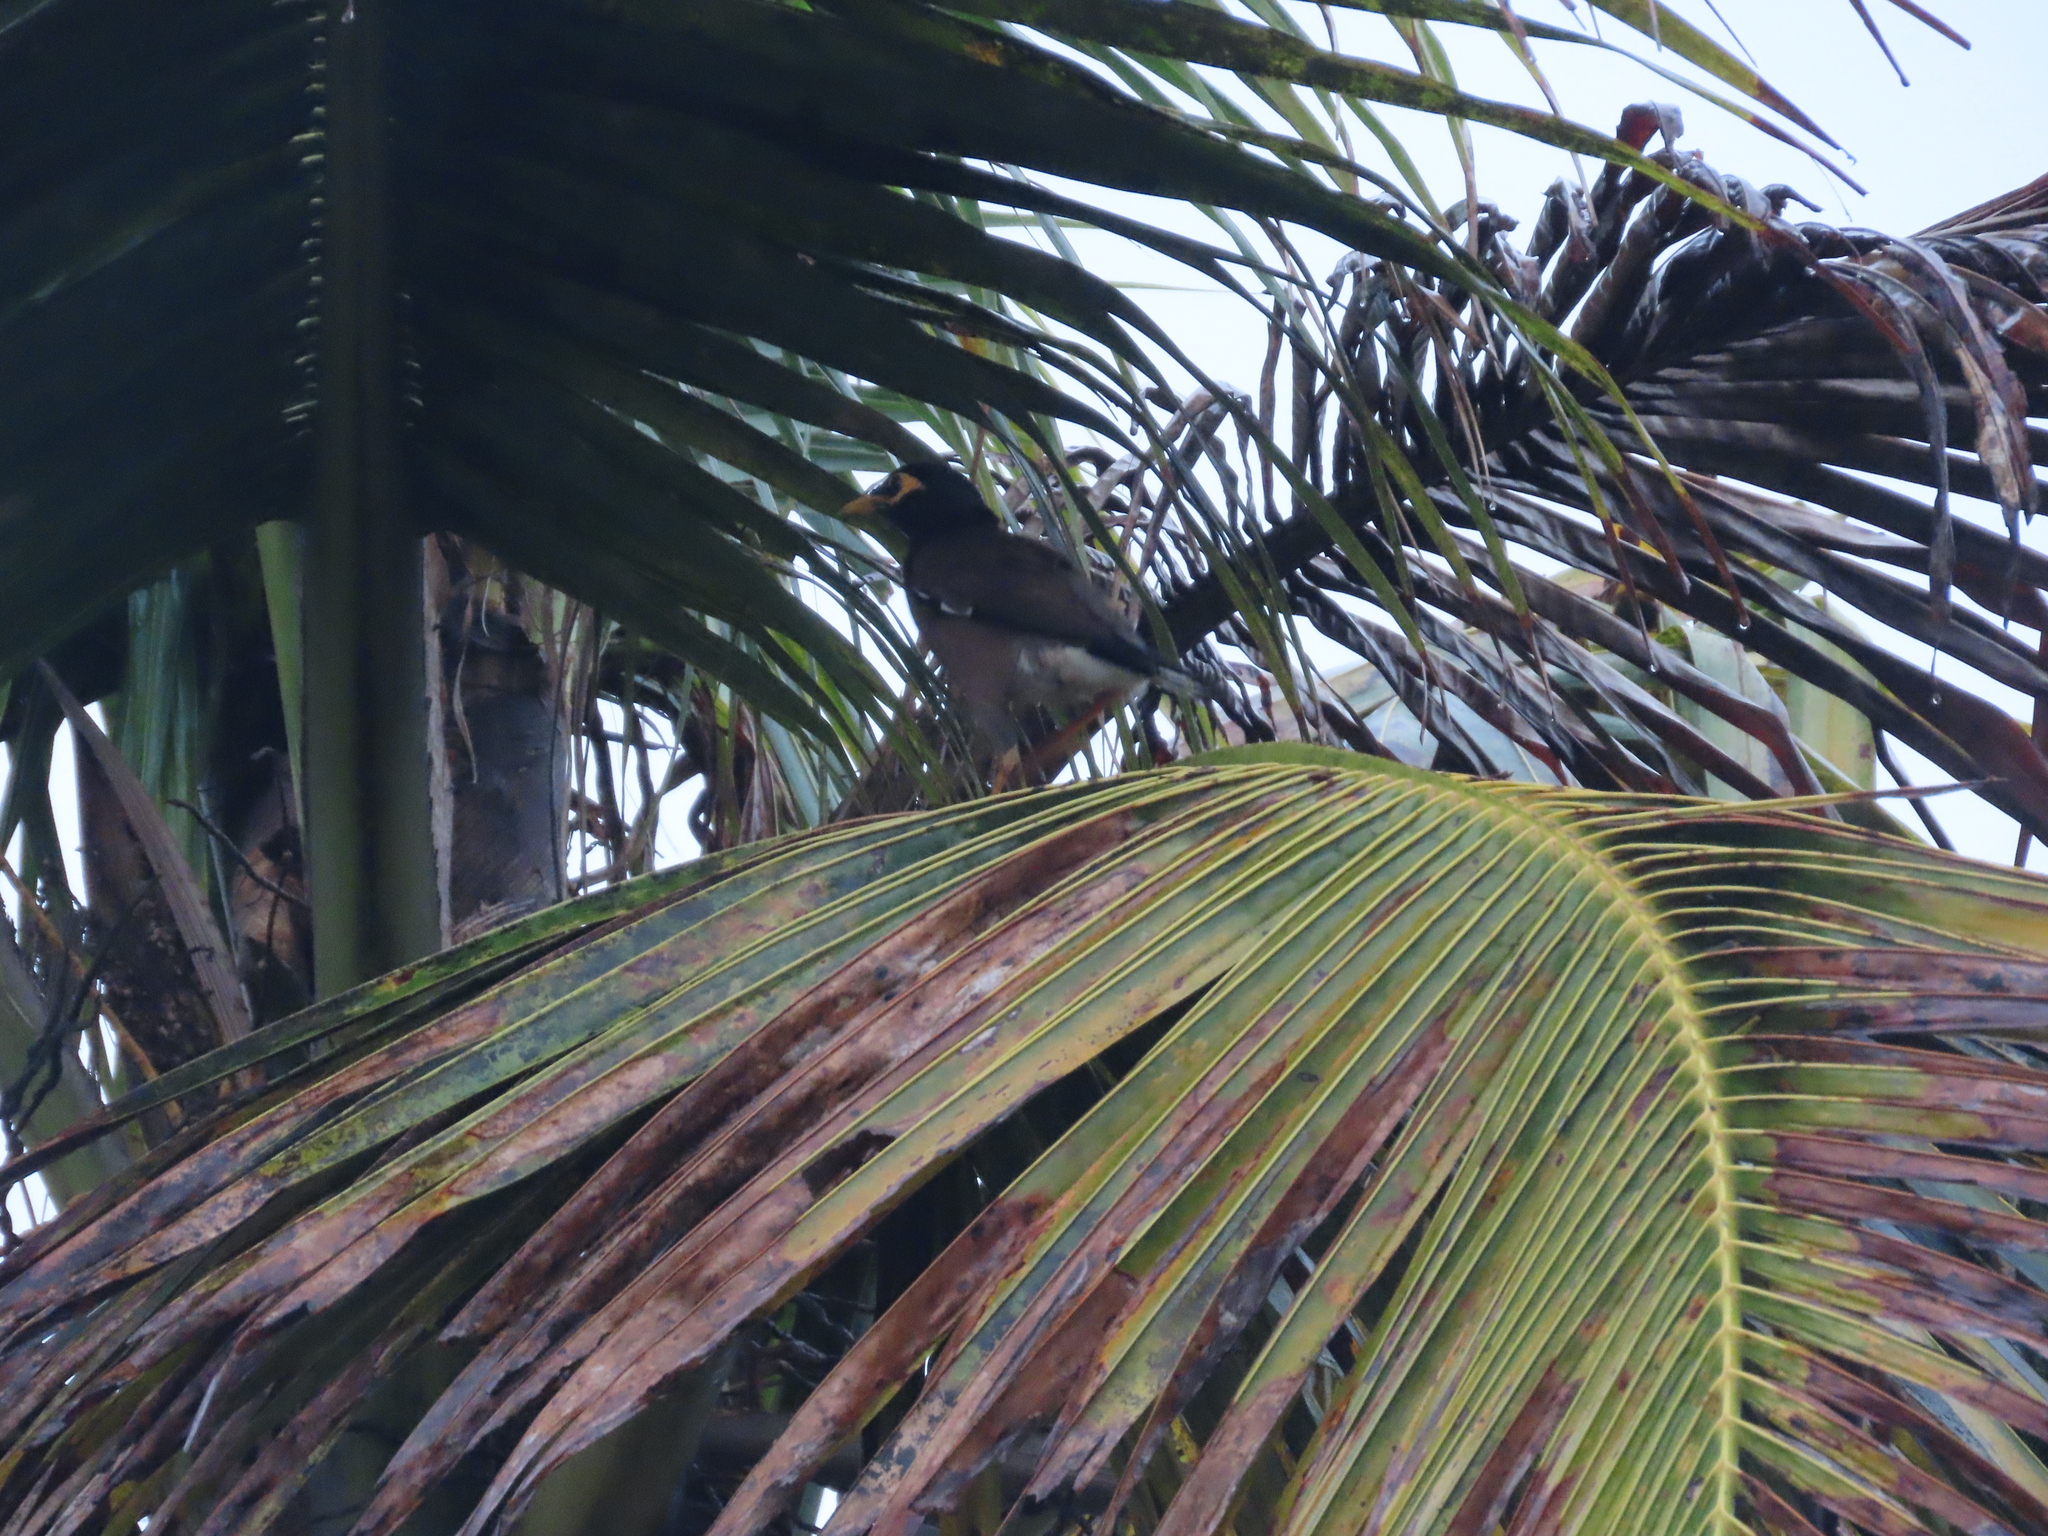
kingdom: Animalia
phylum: Chordata
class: Aves
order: Passeriformes
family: Sturnidae
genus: Acridotheres
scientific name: Acridotheres tristis
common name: Common myna
